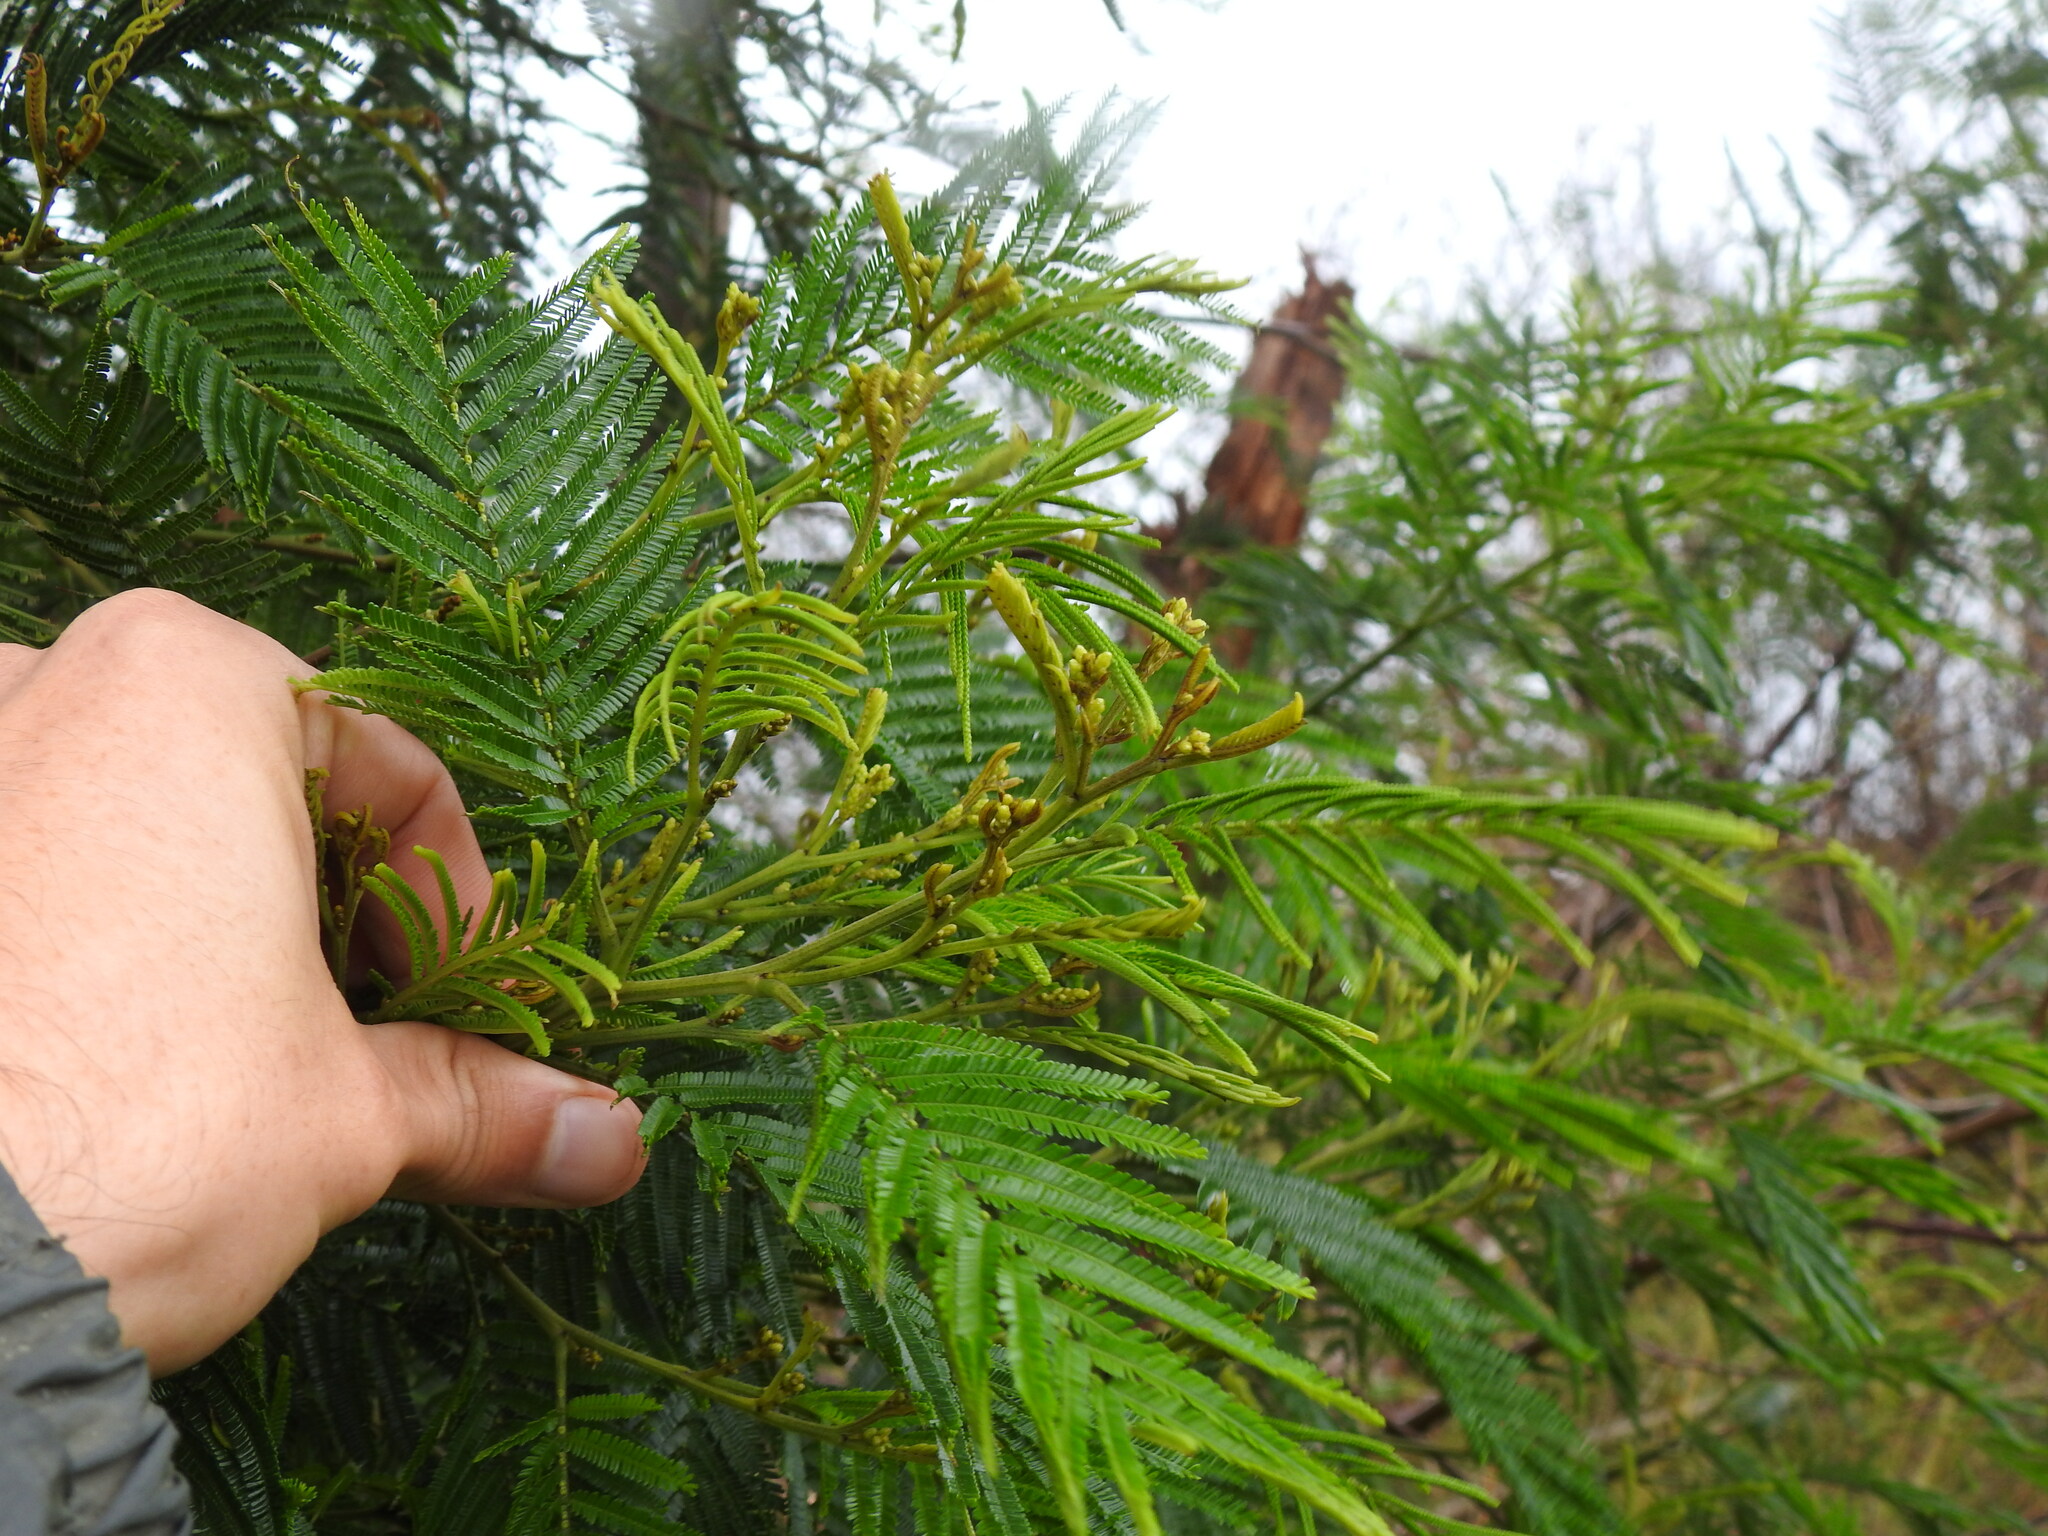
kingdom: Plantae
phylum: Tracheophyta
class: Magnoliopsida
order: Fabales
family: Fabaceae
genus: Acacia
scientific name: Acacia mearnsii
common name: Black wattle
